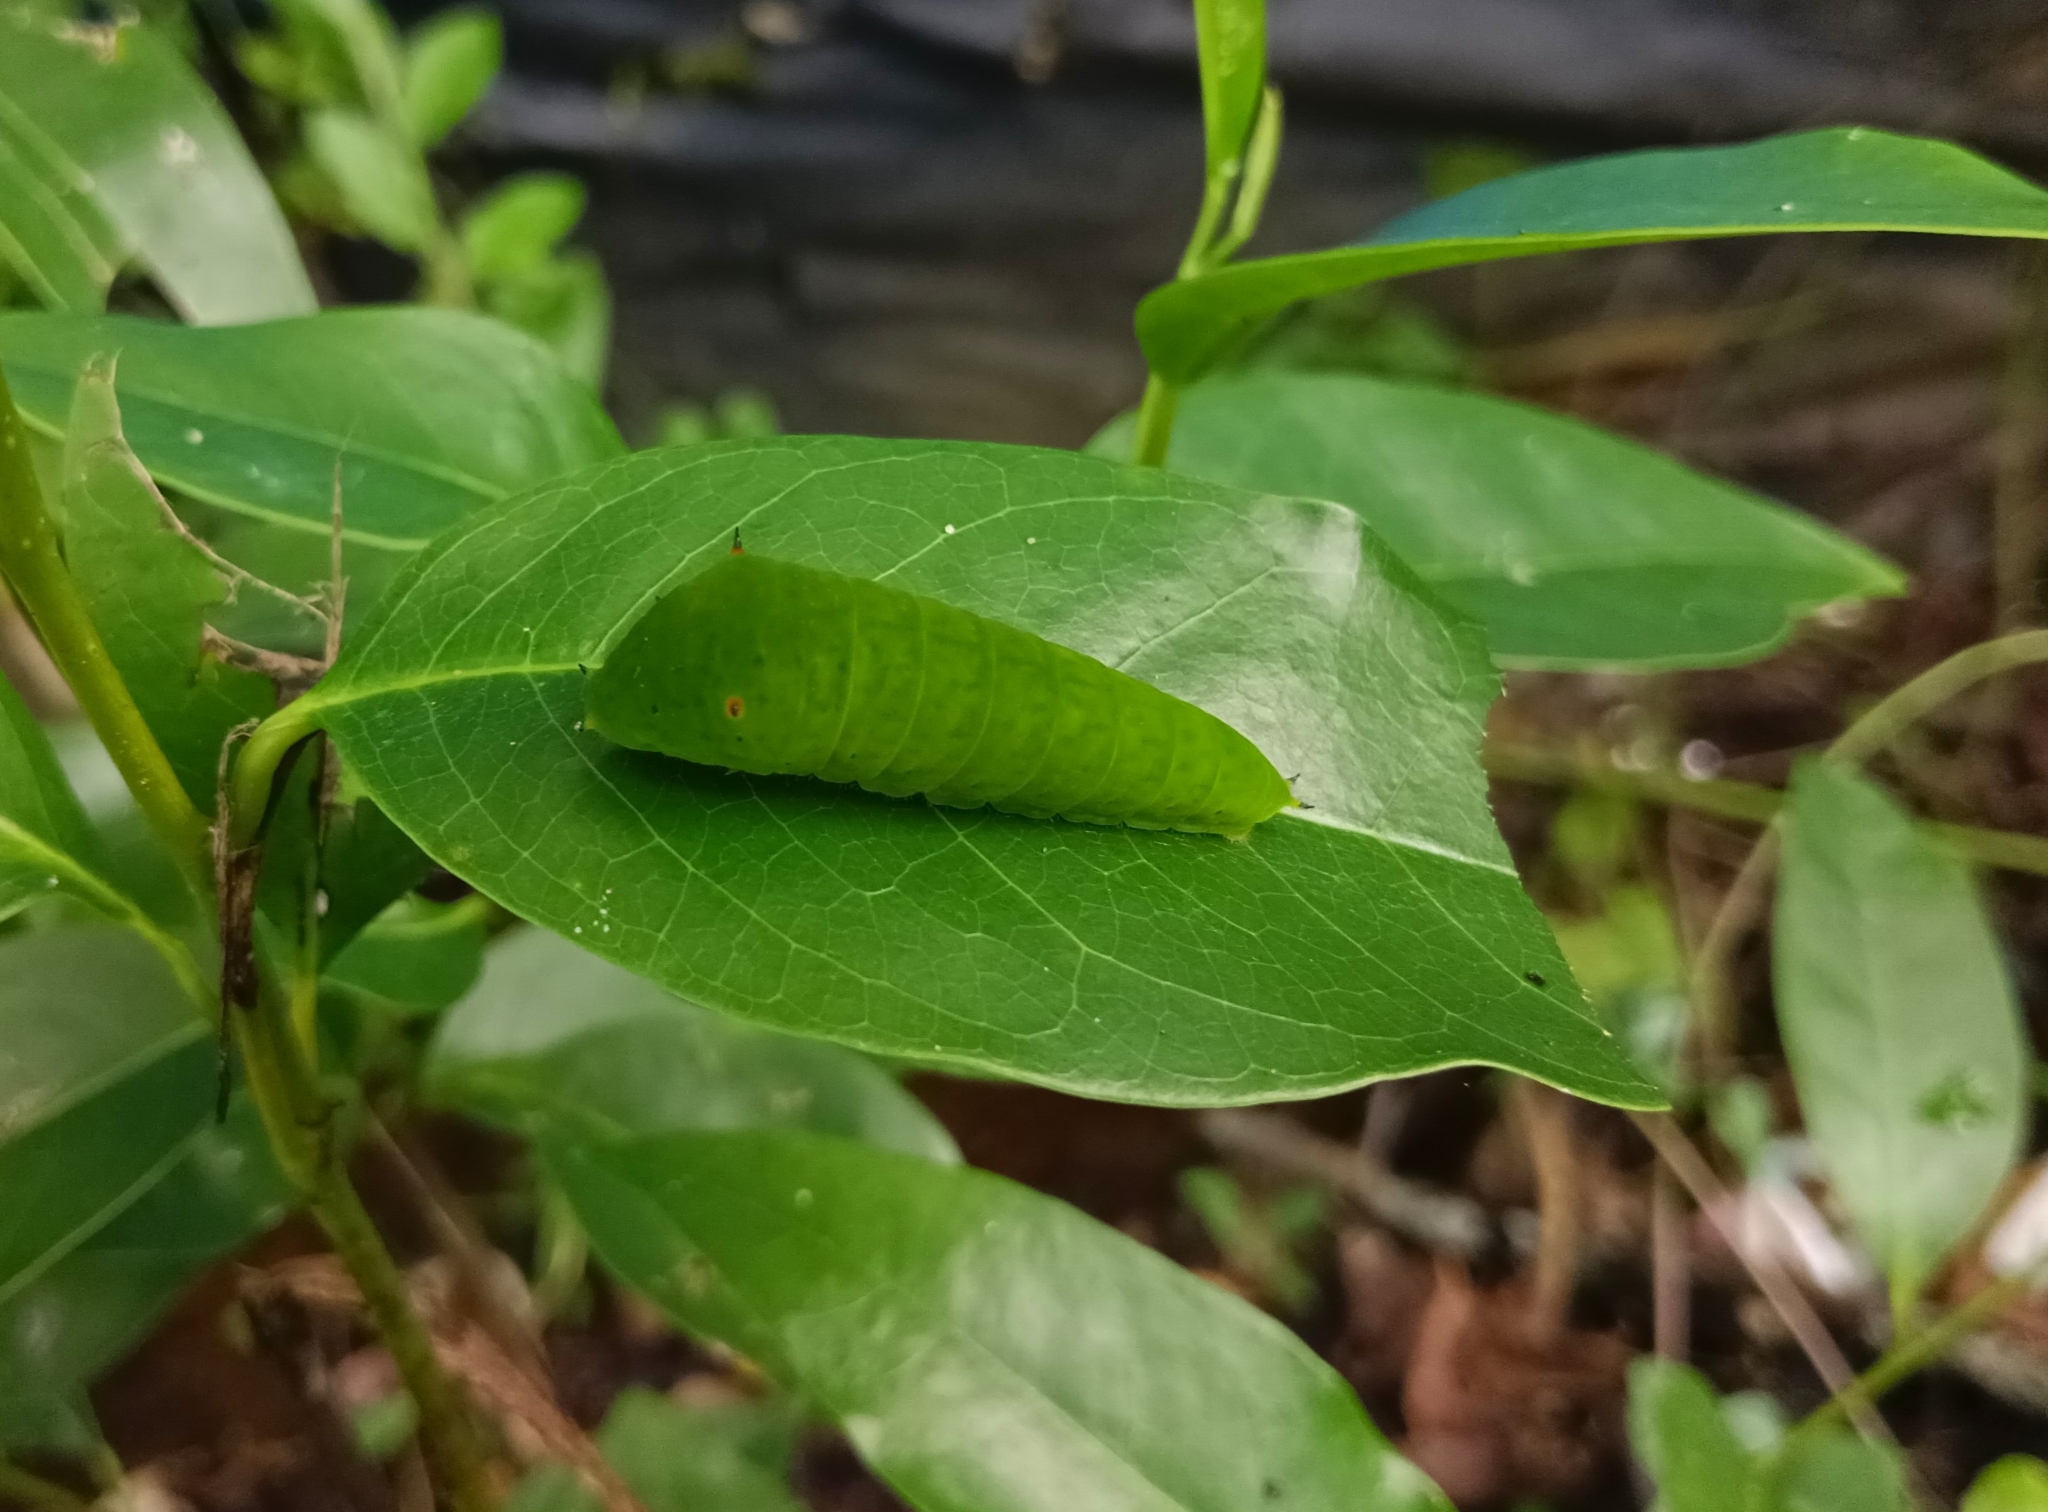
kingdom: Animalia
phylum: Arthropoda
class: Insecta
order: Lepidoptera
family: Papilionidae
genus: Graphium
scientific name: Graphium agamemnon
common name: Tailed jay
